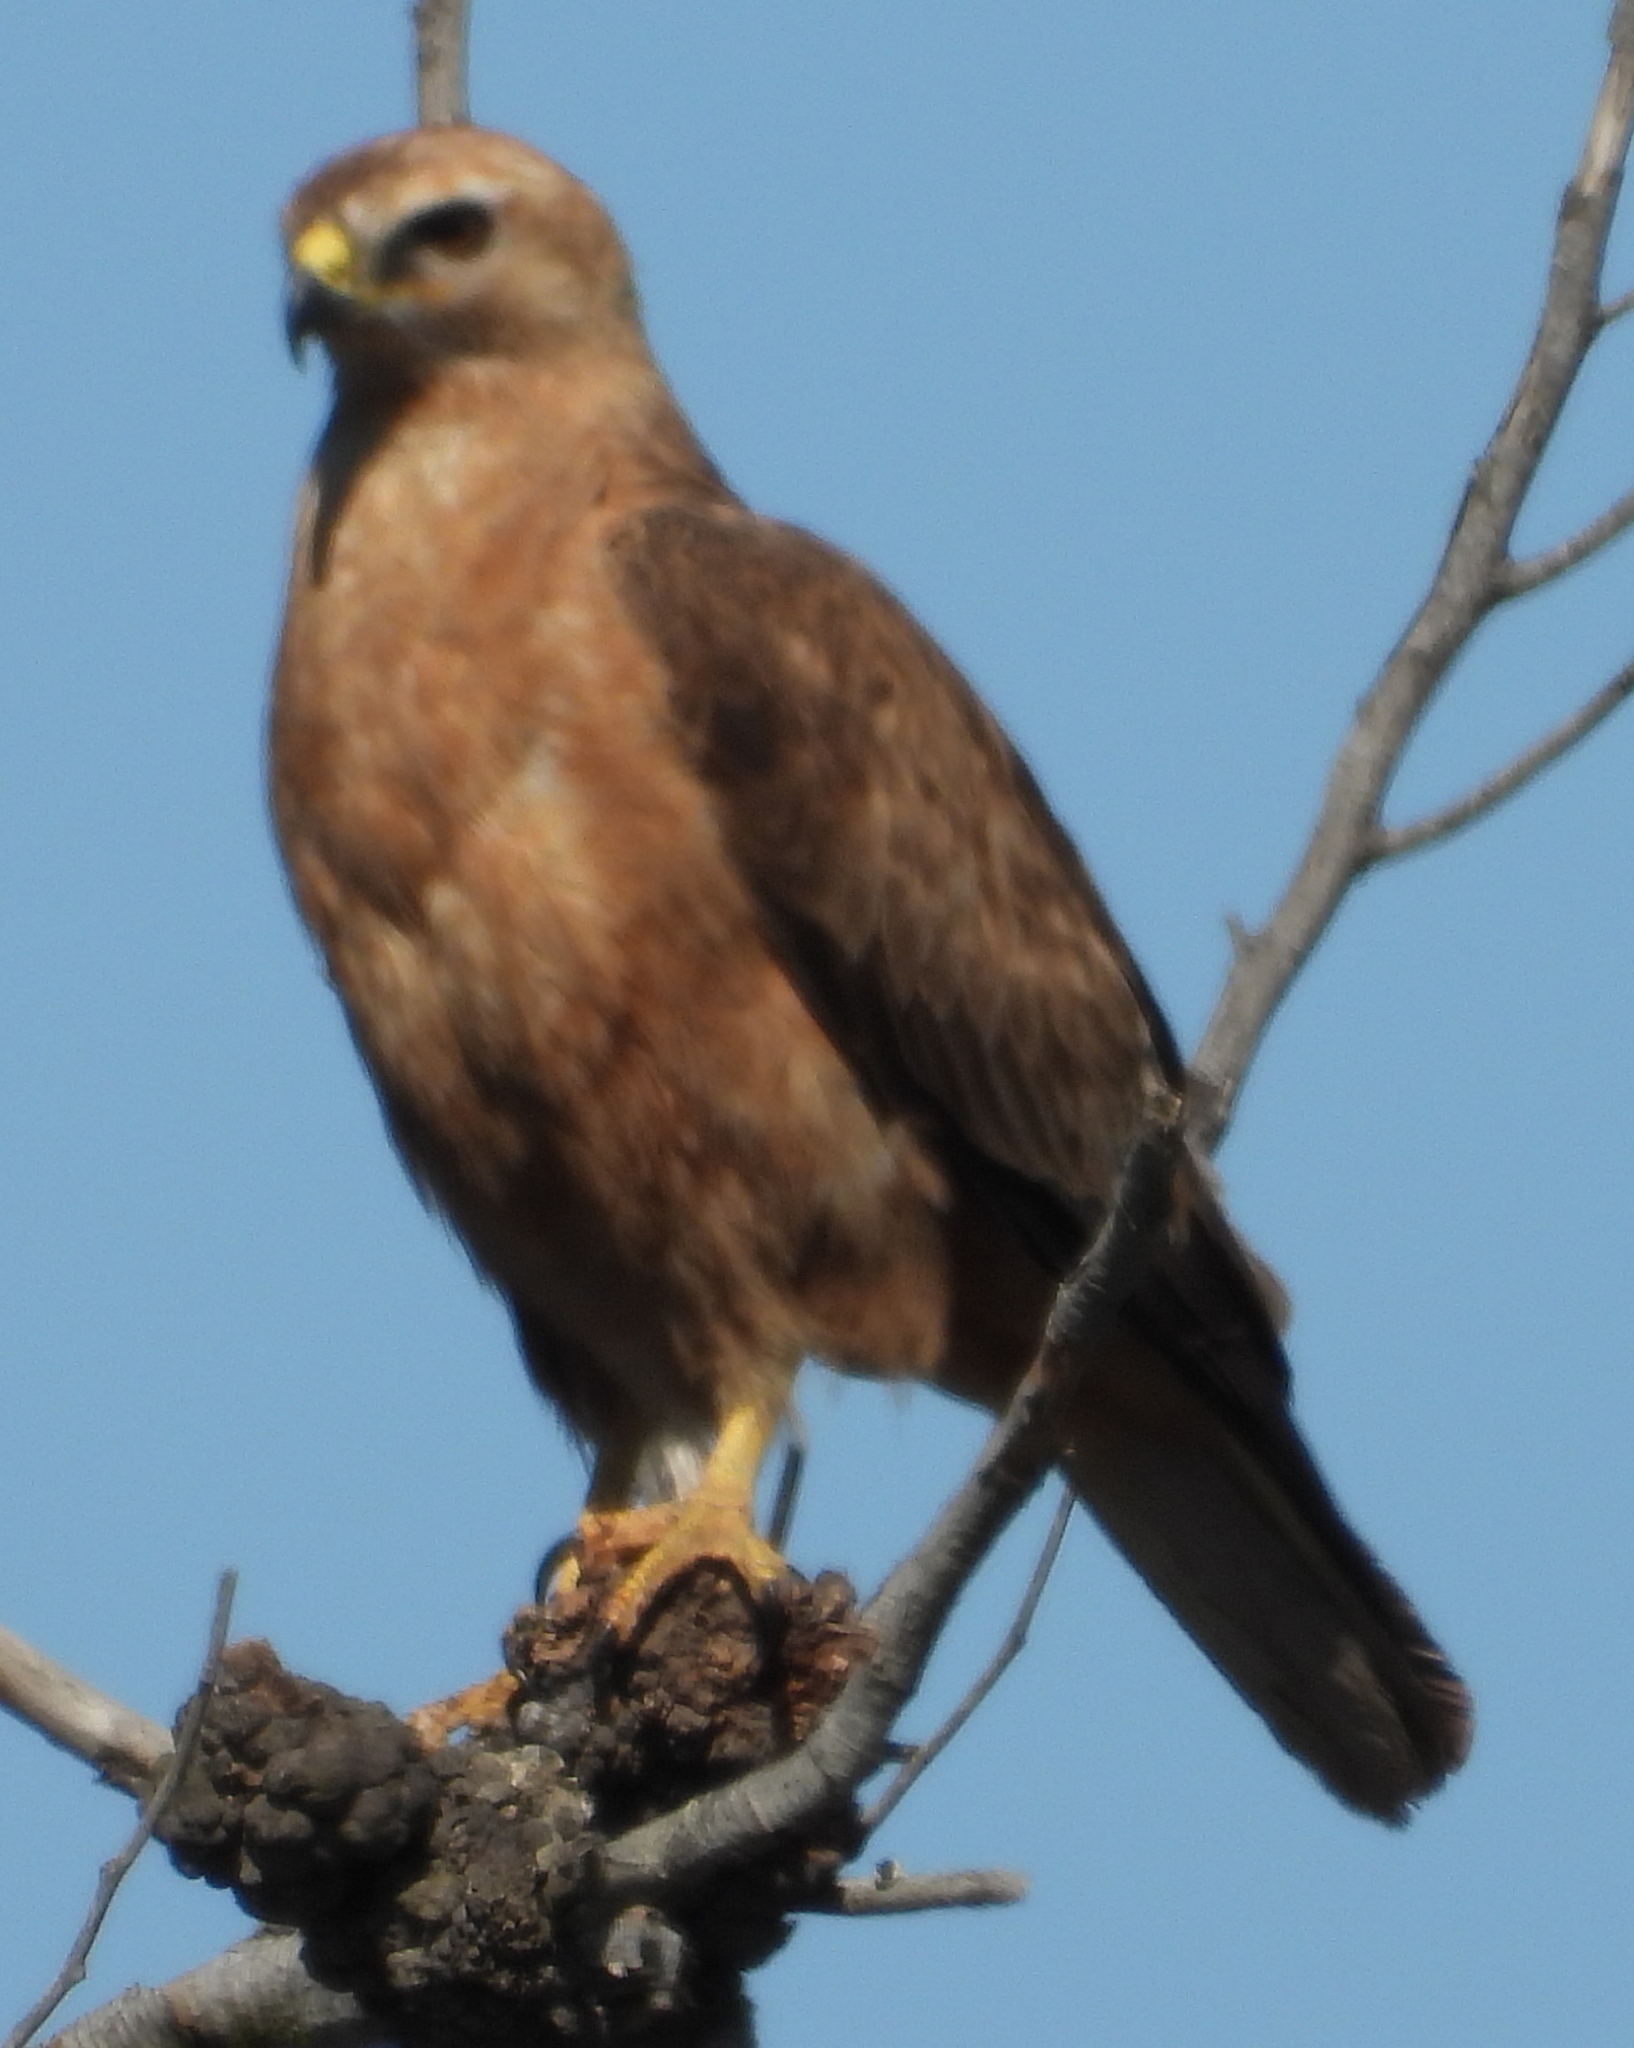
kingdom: Animalia
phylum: Chordata
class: Aves
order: Accipitriformes
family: Accipitridae
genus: Buteo
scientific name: Buteo buteo
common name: Common buzzard
